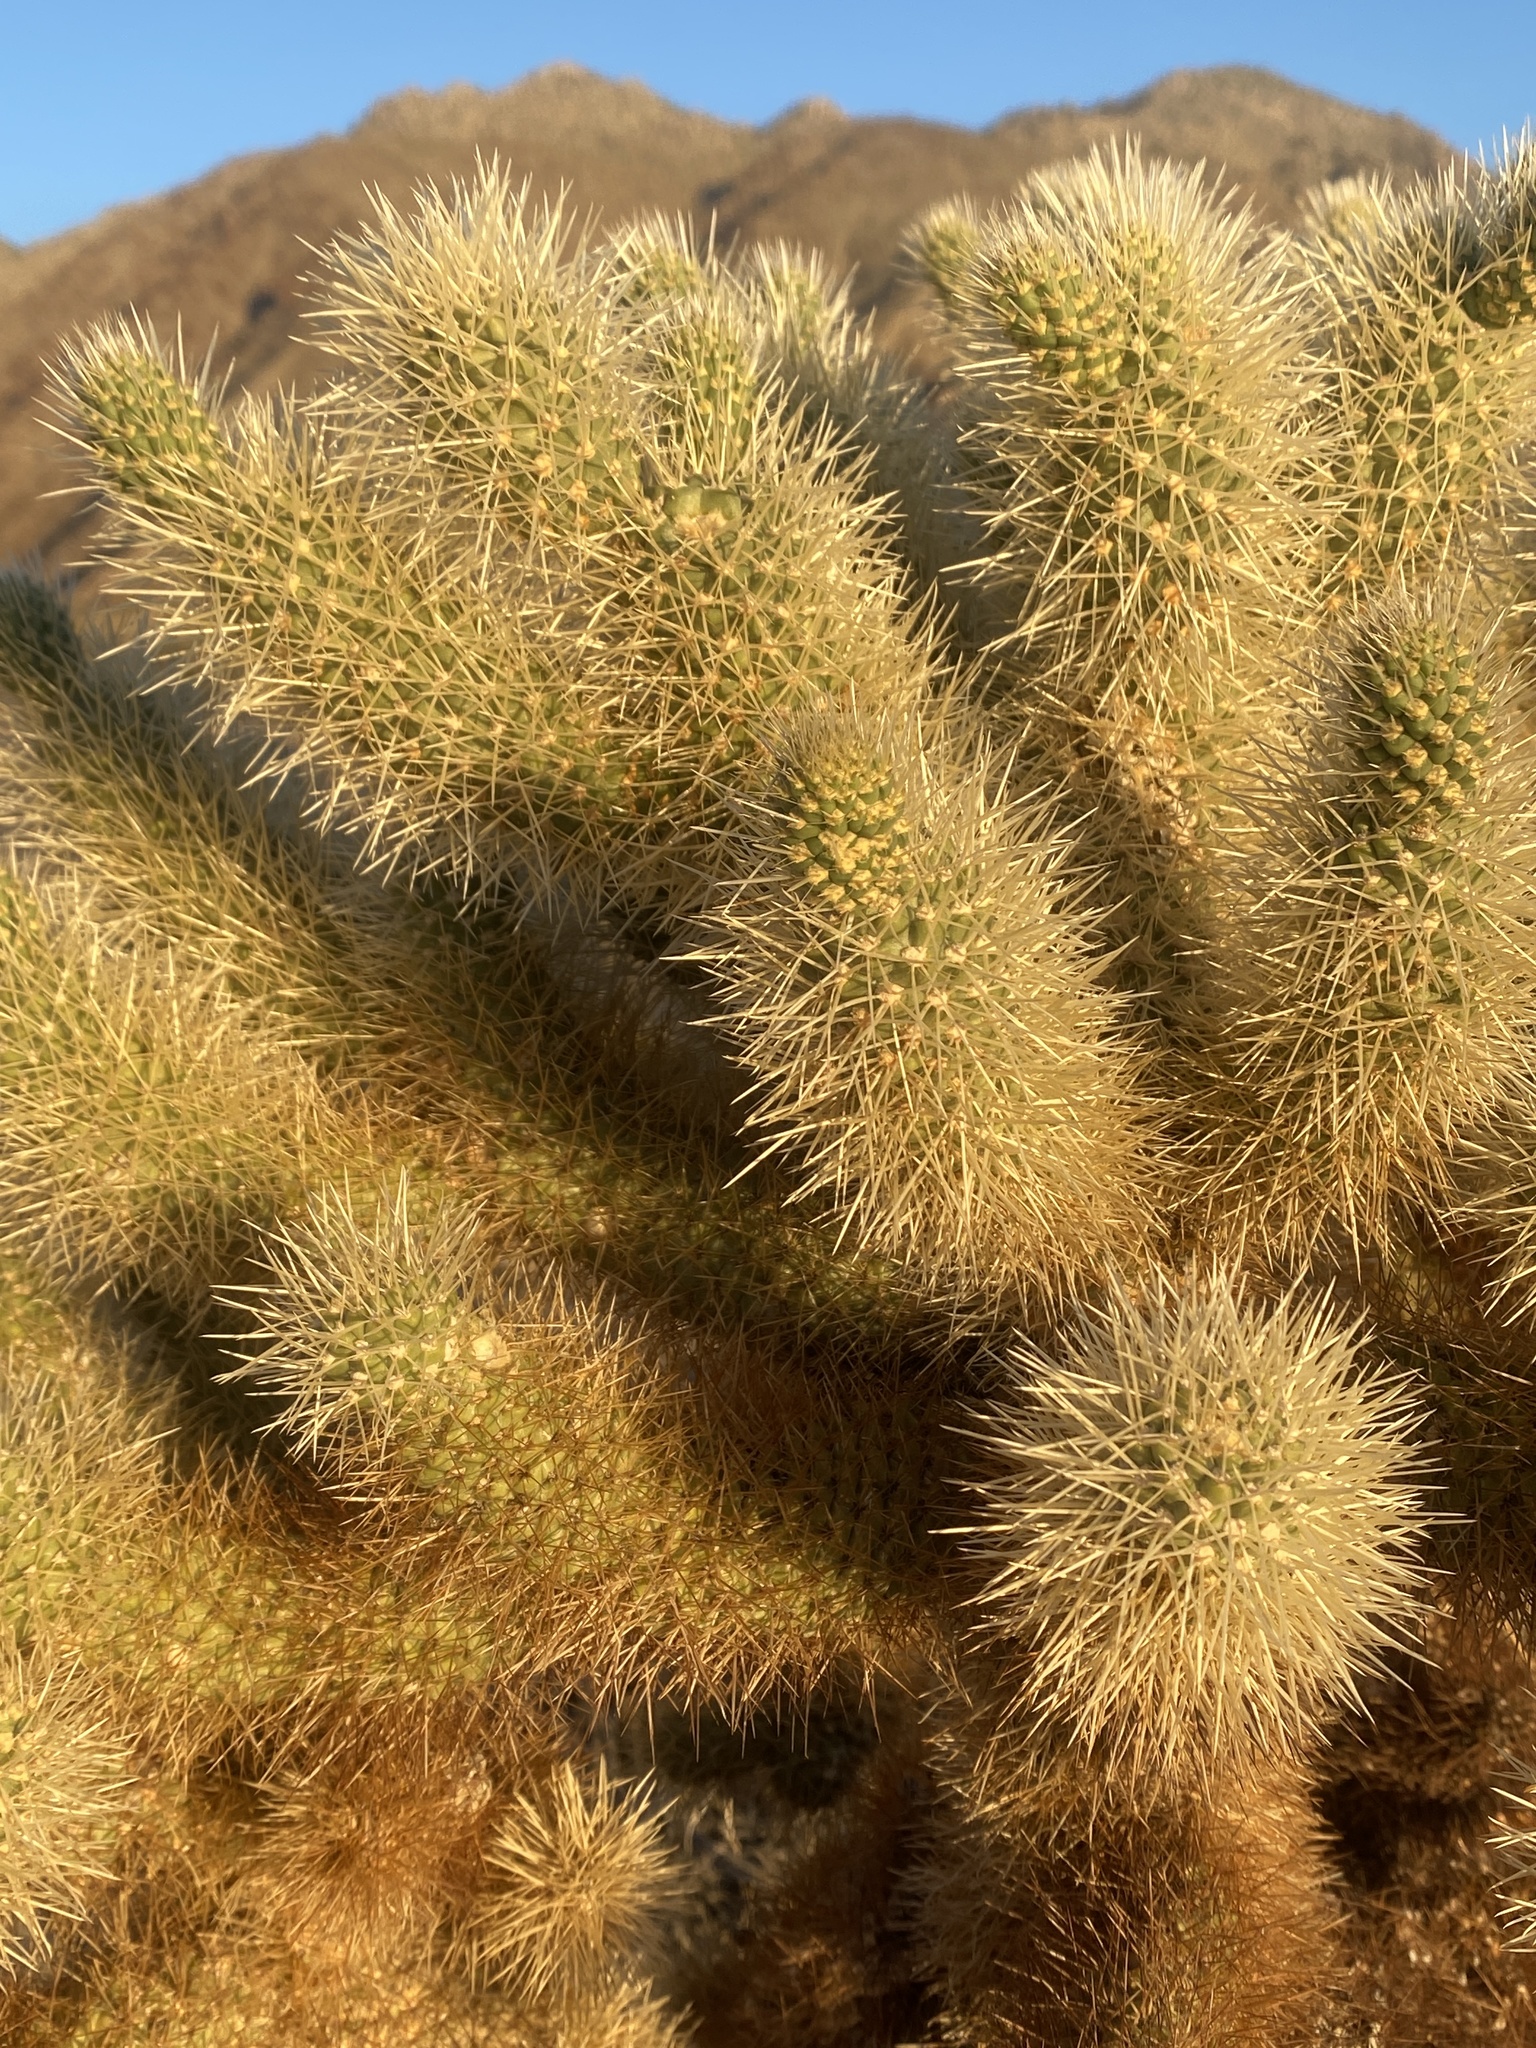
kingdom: Plantae
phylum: Tracheophyta
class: Magnoliopsida
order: Caryophyllales
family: Cactaceae
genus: Cylindropuntia
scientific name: Cylindropuntia fosbergii
